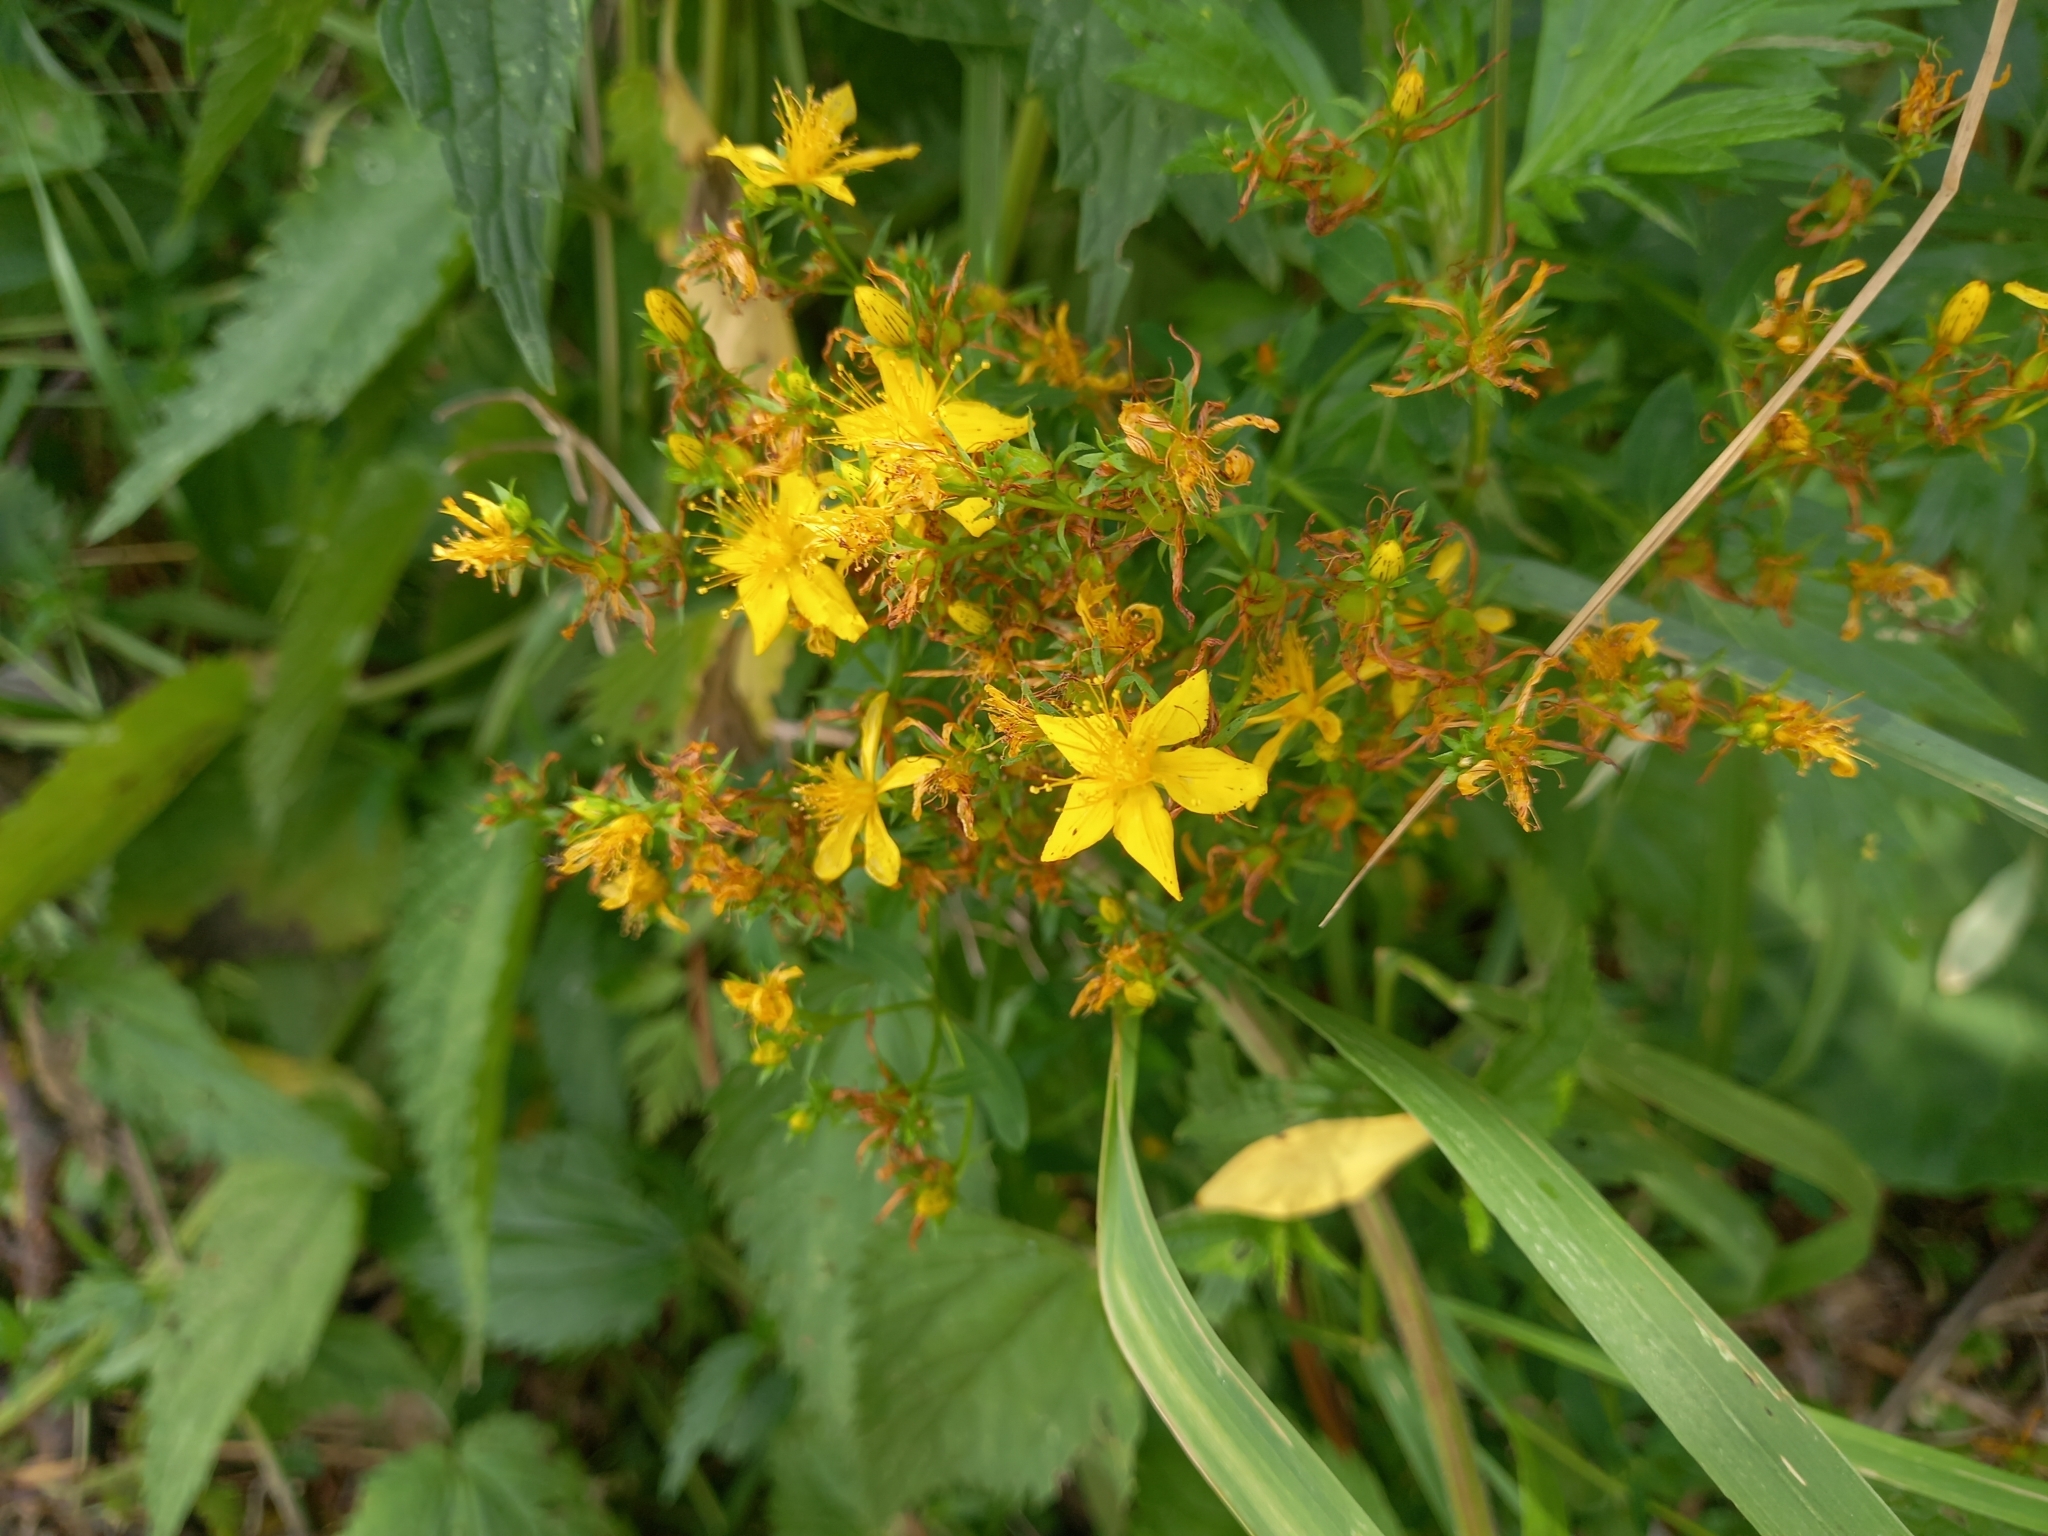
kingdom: Plantae
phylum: Tracheophyta
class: Magnoliopsida
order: Malpighiales
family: Hypericaceae
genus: Hypericum
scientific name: Hypericum perforatum
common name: Common st. johnswort
